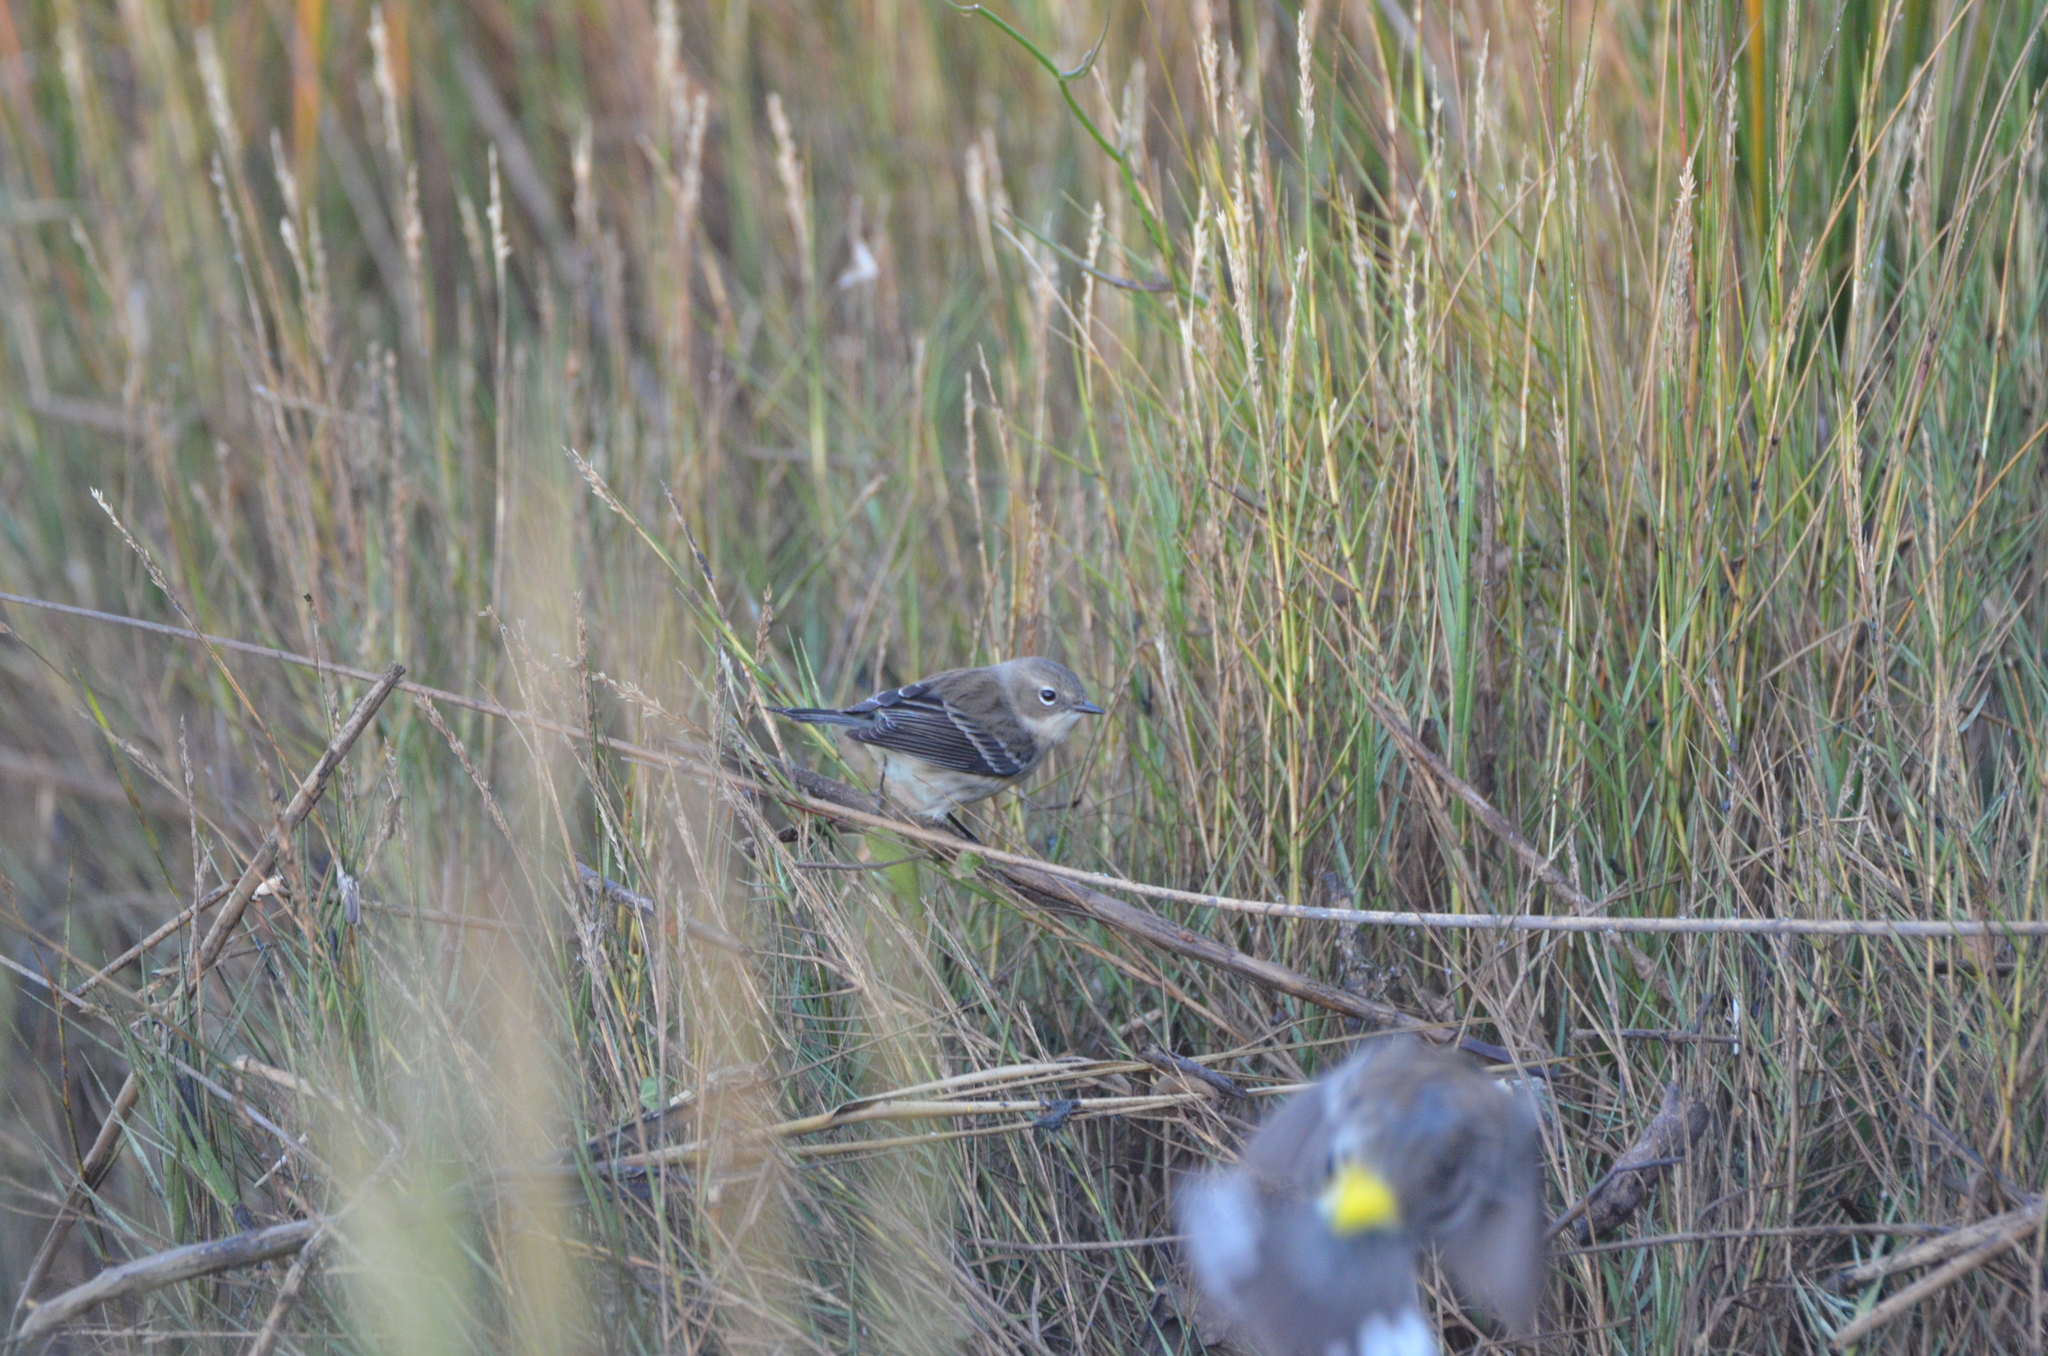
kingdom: Animalia
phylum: Chordata
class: Aves
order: Passeriformes
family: Parulidae
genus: Setophaga
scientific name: Setophaga coronata
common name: Myrtle warbler
